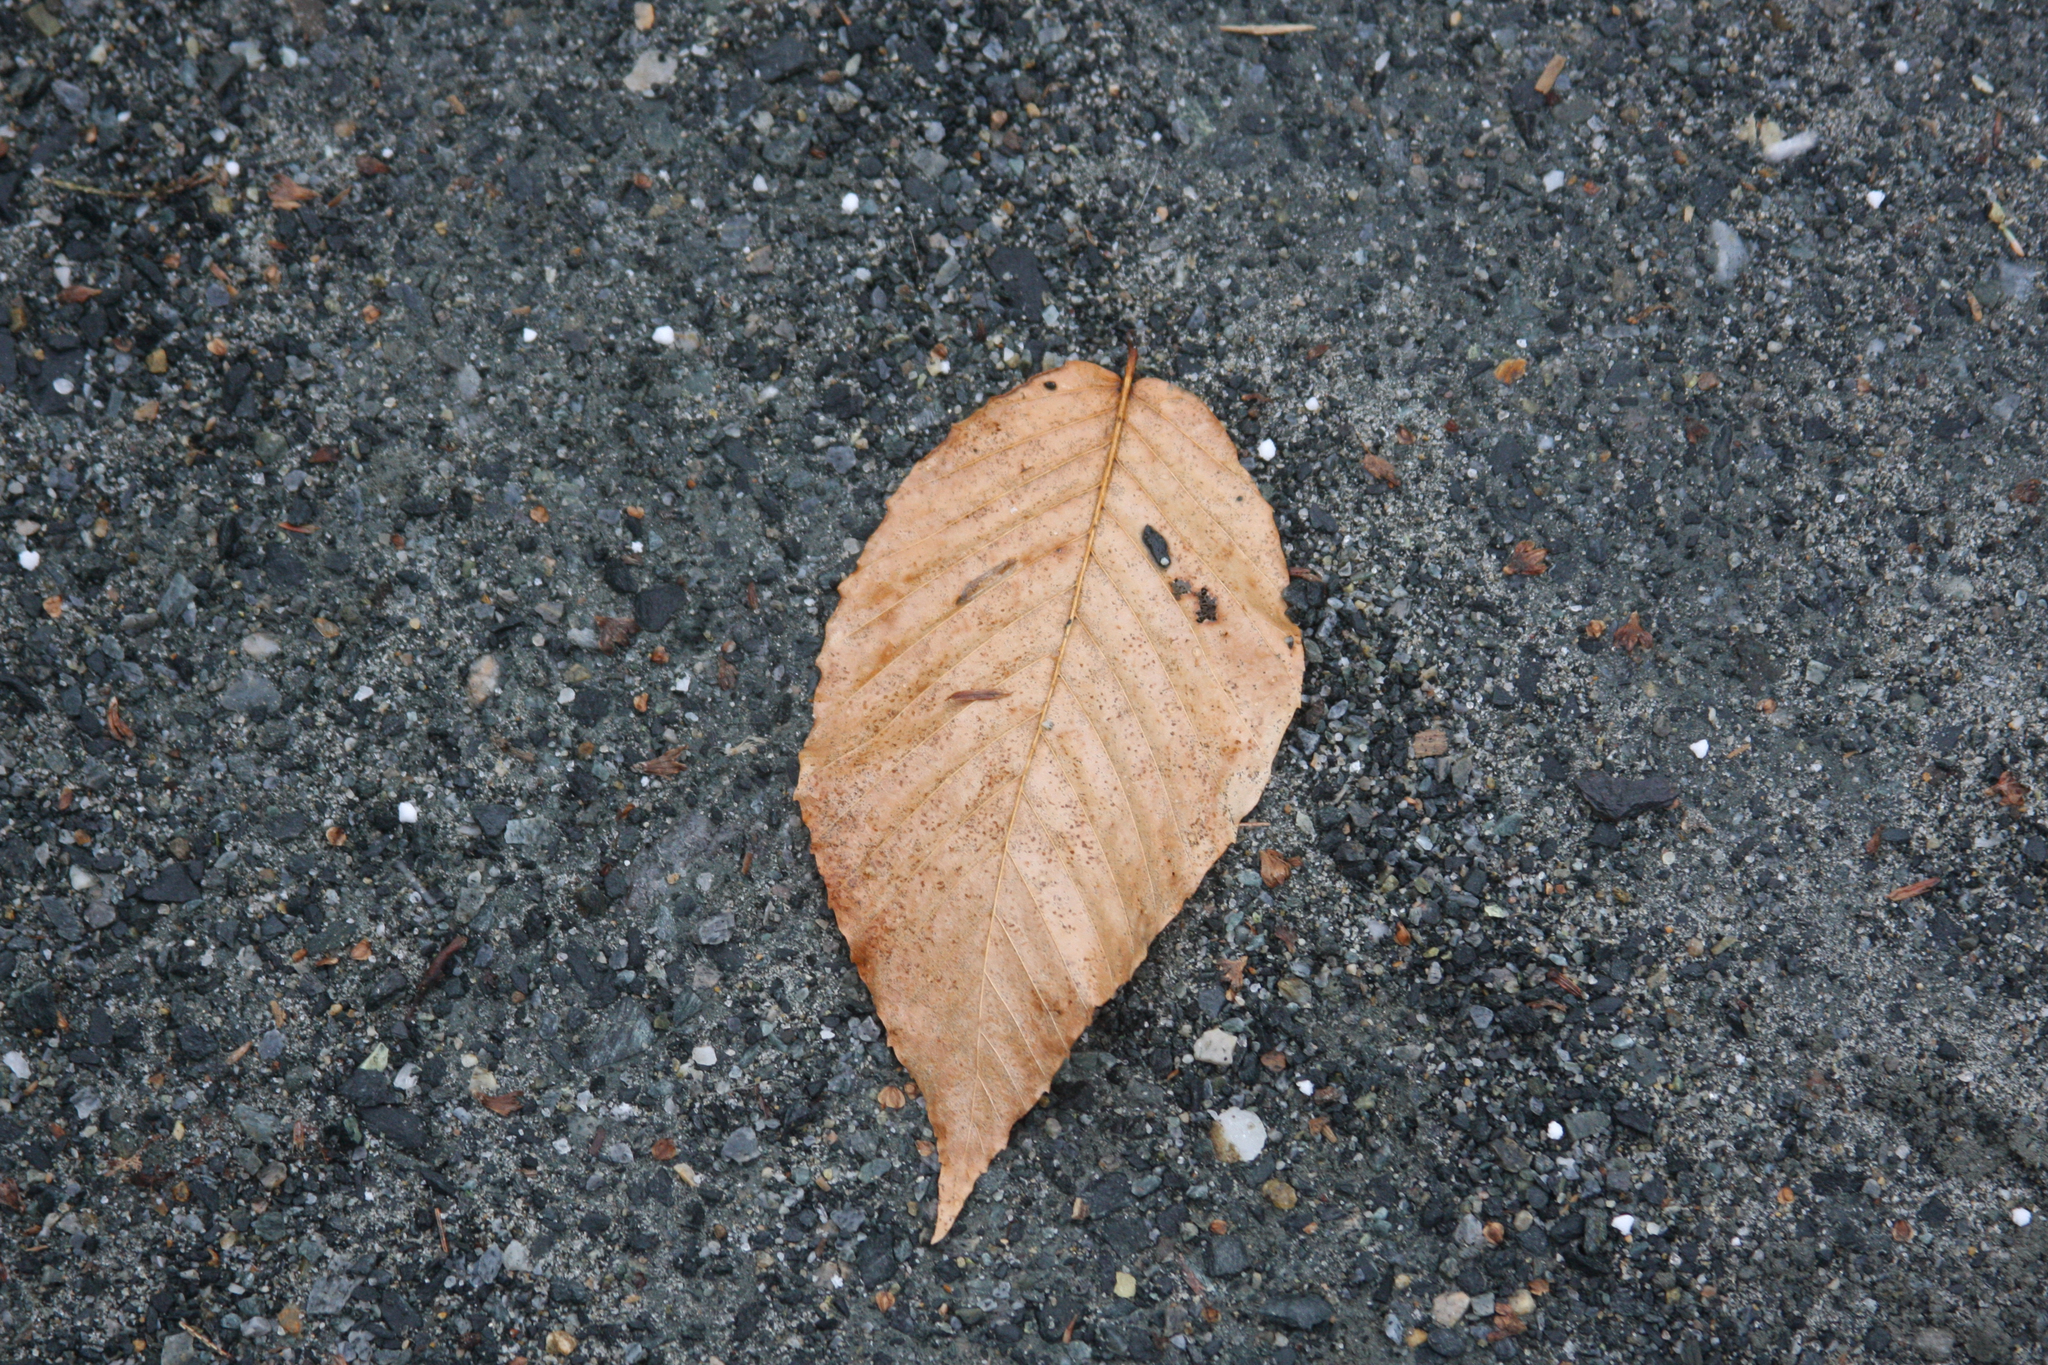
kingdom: Plantae
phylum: Tracheophyta
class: Magnoliopsida
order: Fagales
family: Fagaceae
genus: Fagus
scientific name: Fagus grandifolia
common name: American beech
